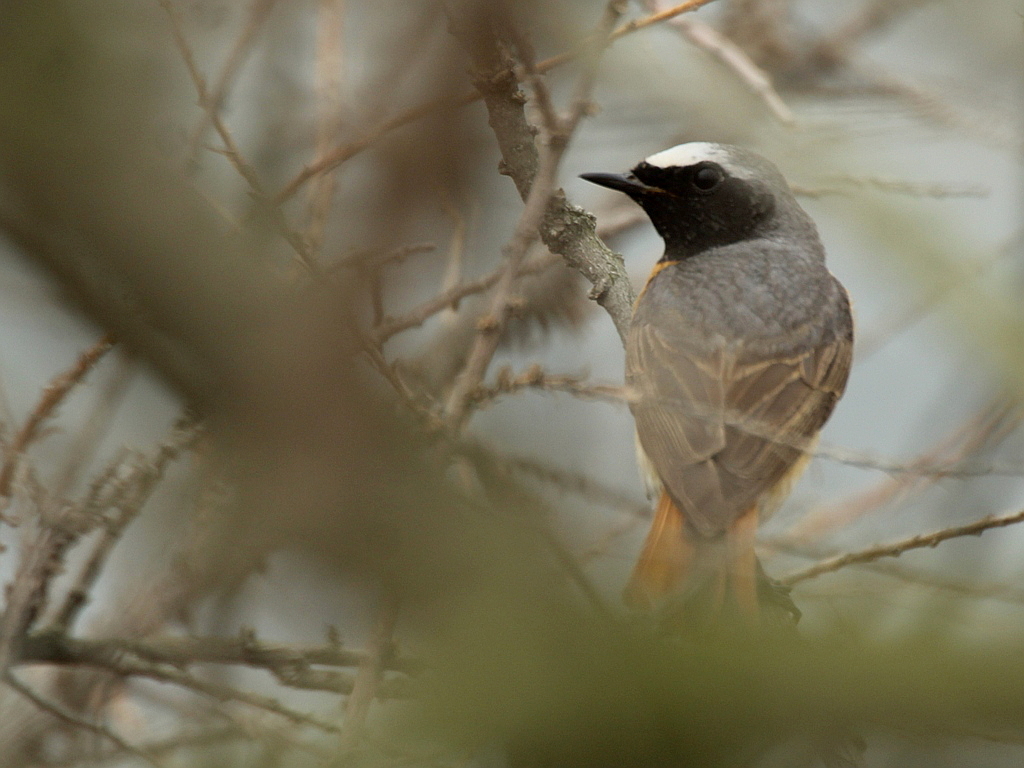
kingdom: Animalia
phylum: Chordata
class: Aves
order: Passeriformes
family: Muscicapidae
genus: Phoenicurus
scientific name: Phoenicurus phoenicurus
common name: Common redstart
